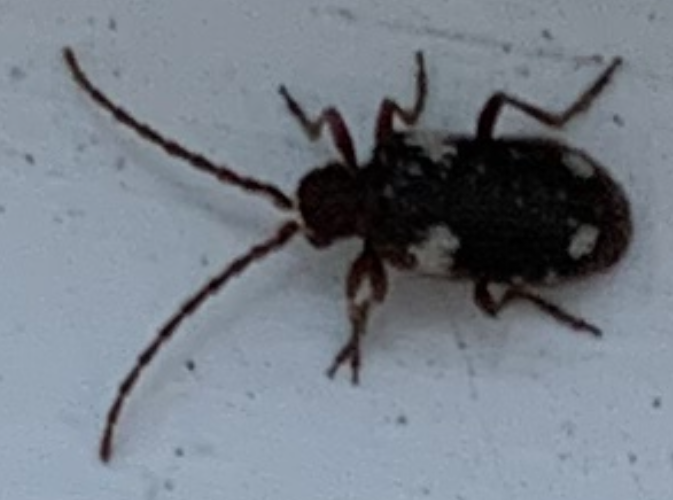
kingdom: Animalia
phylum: Arthropoda
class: Insecta
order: Coleoptera
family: Ptinidae
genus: Ptinus
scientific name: Ptinus sexpunctatus
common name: Six-spotted spider beetle
